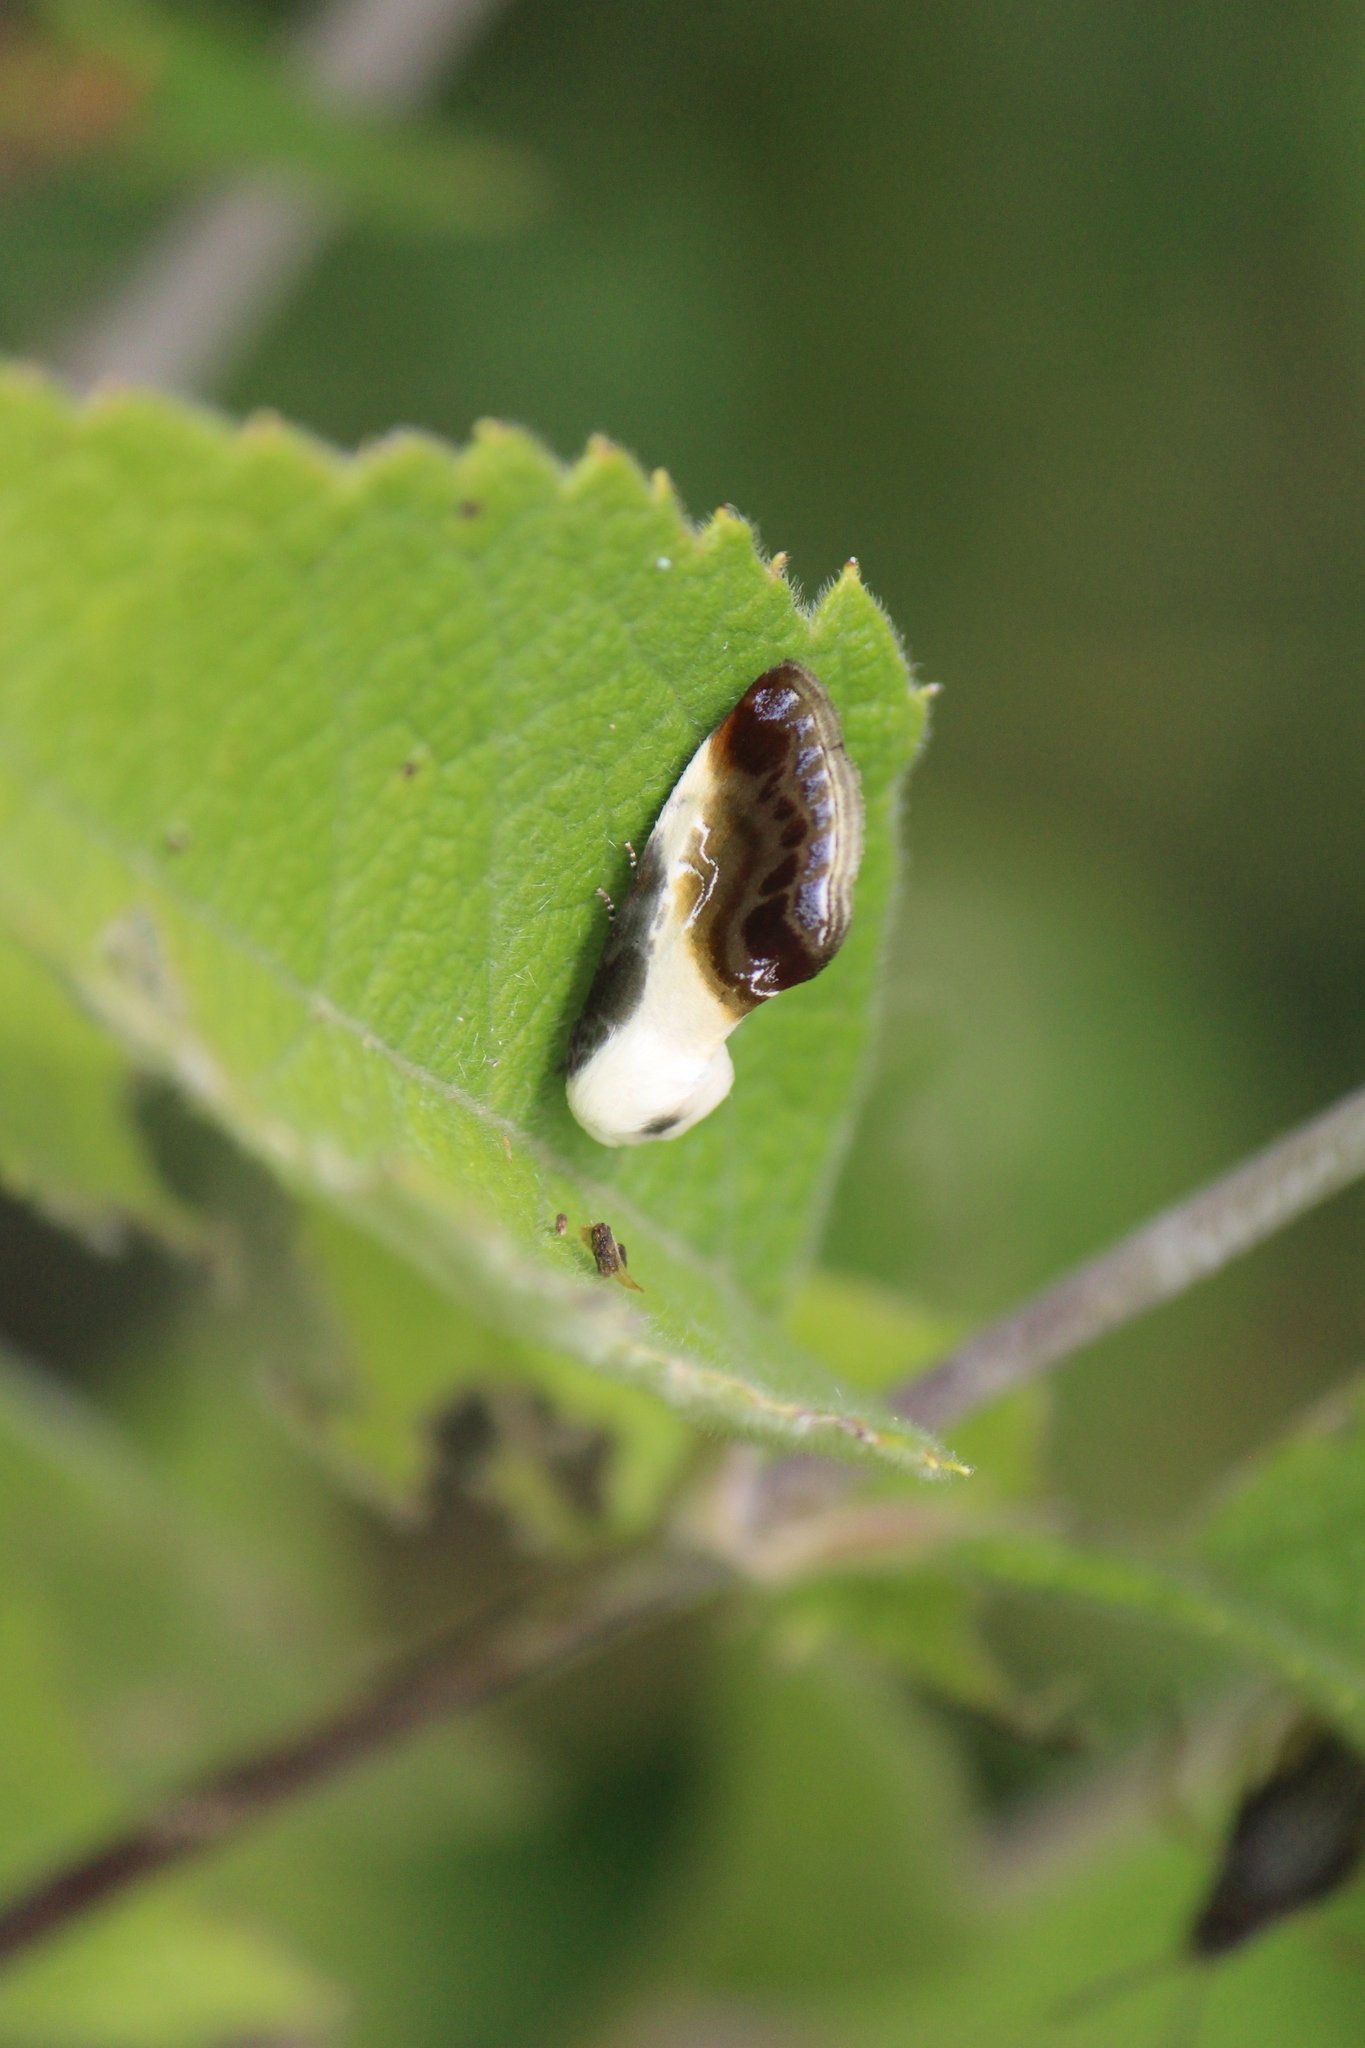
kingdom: Animalia
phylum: Arthropoda
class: Insecta
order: Lepidoptera
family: Noctuidae
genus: Acontia
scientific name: Acontia jaliscana
